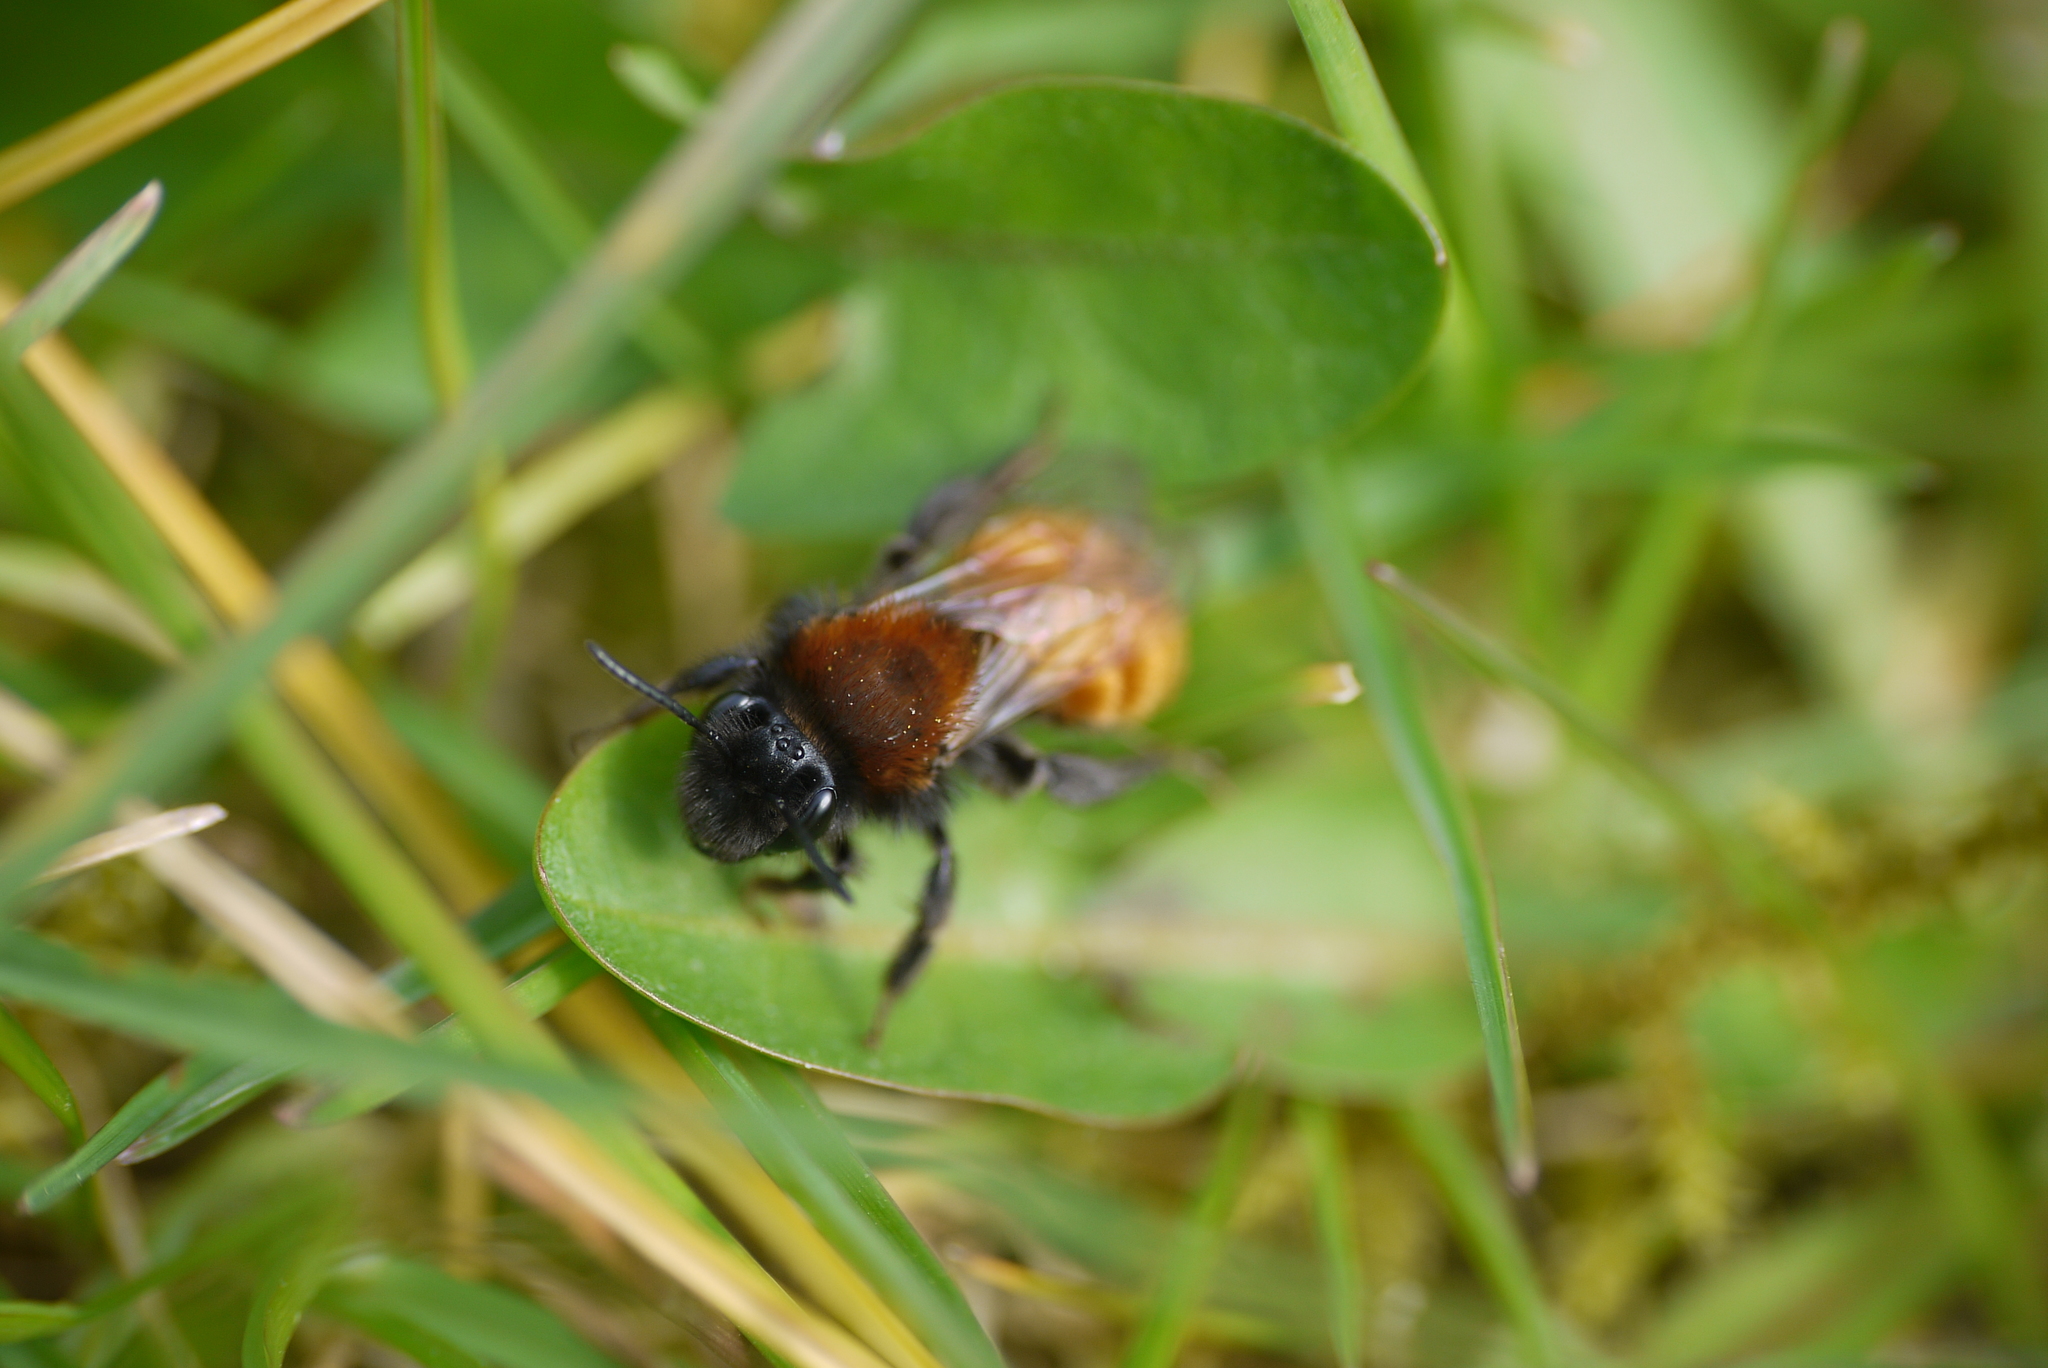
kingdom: Animalia
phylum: Arthropoda
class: Insecta
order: Hymenoptera
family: Andrenidae
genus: Andrena
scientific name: Andrena fulva
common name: Tawny mining bee
